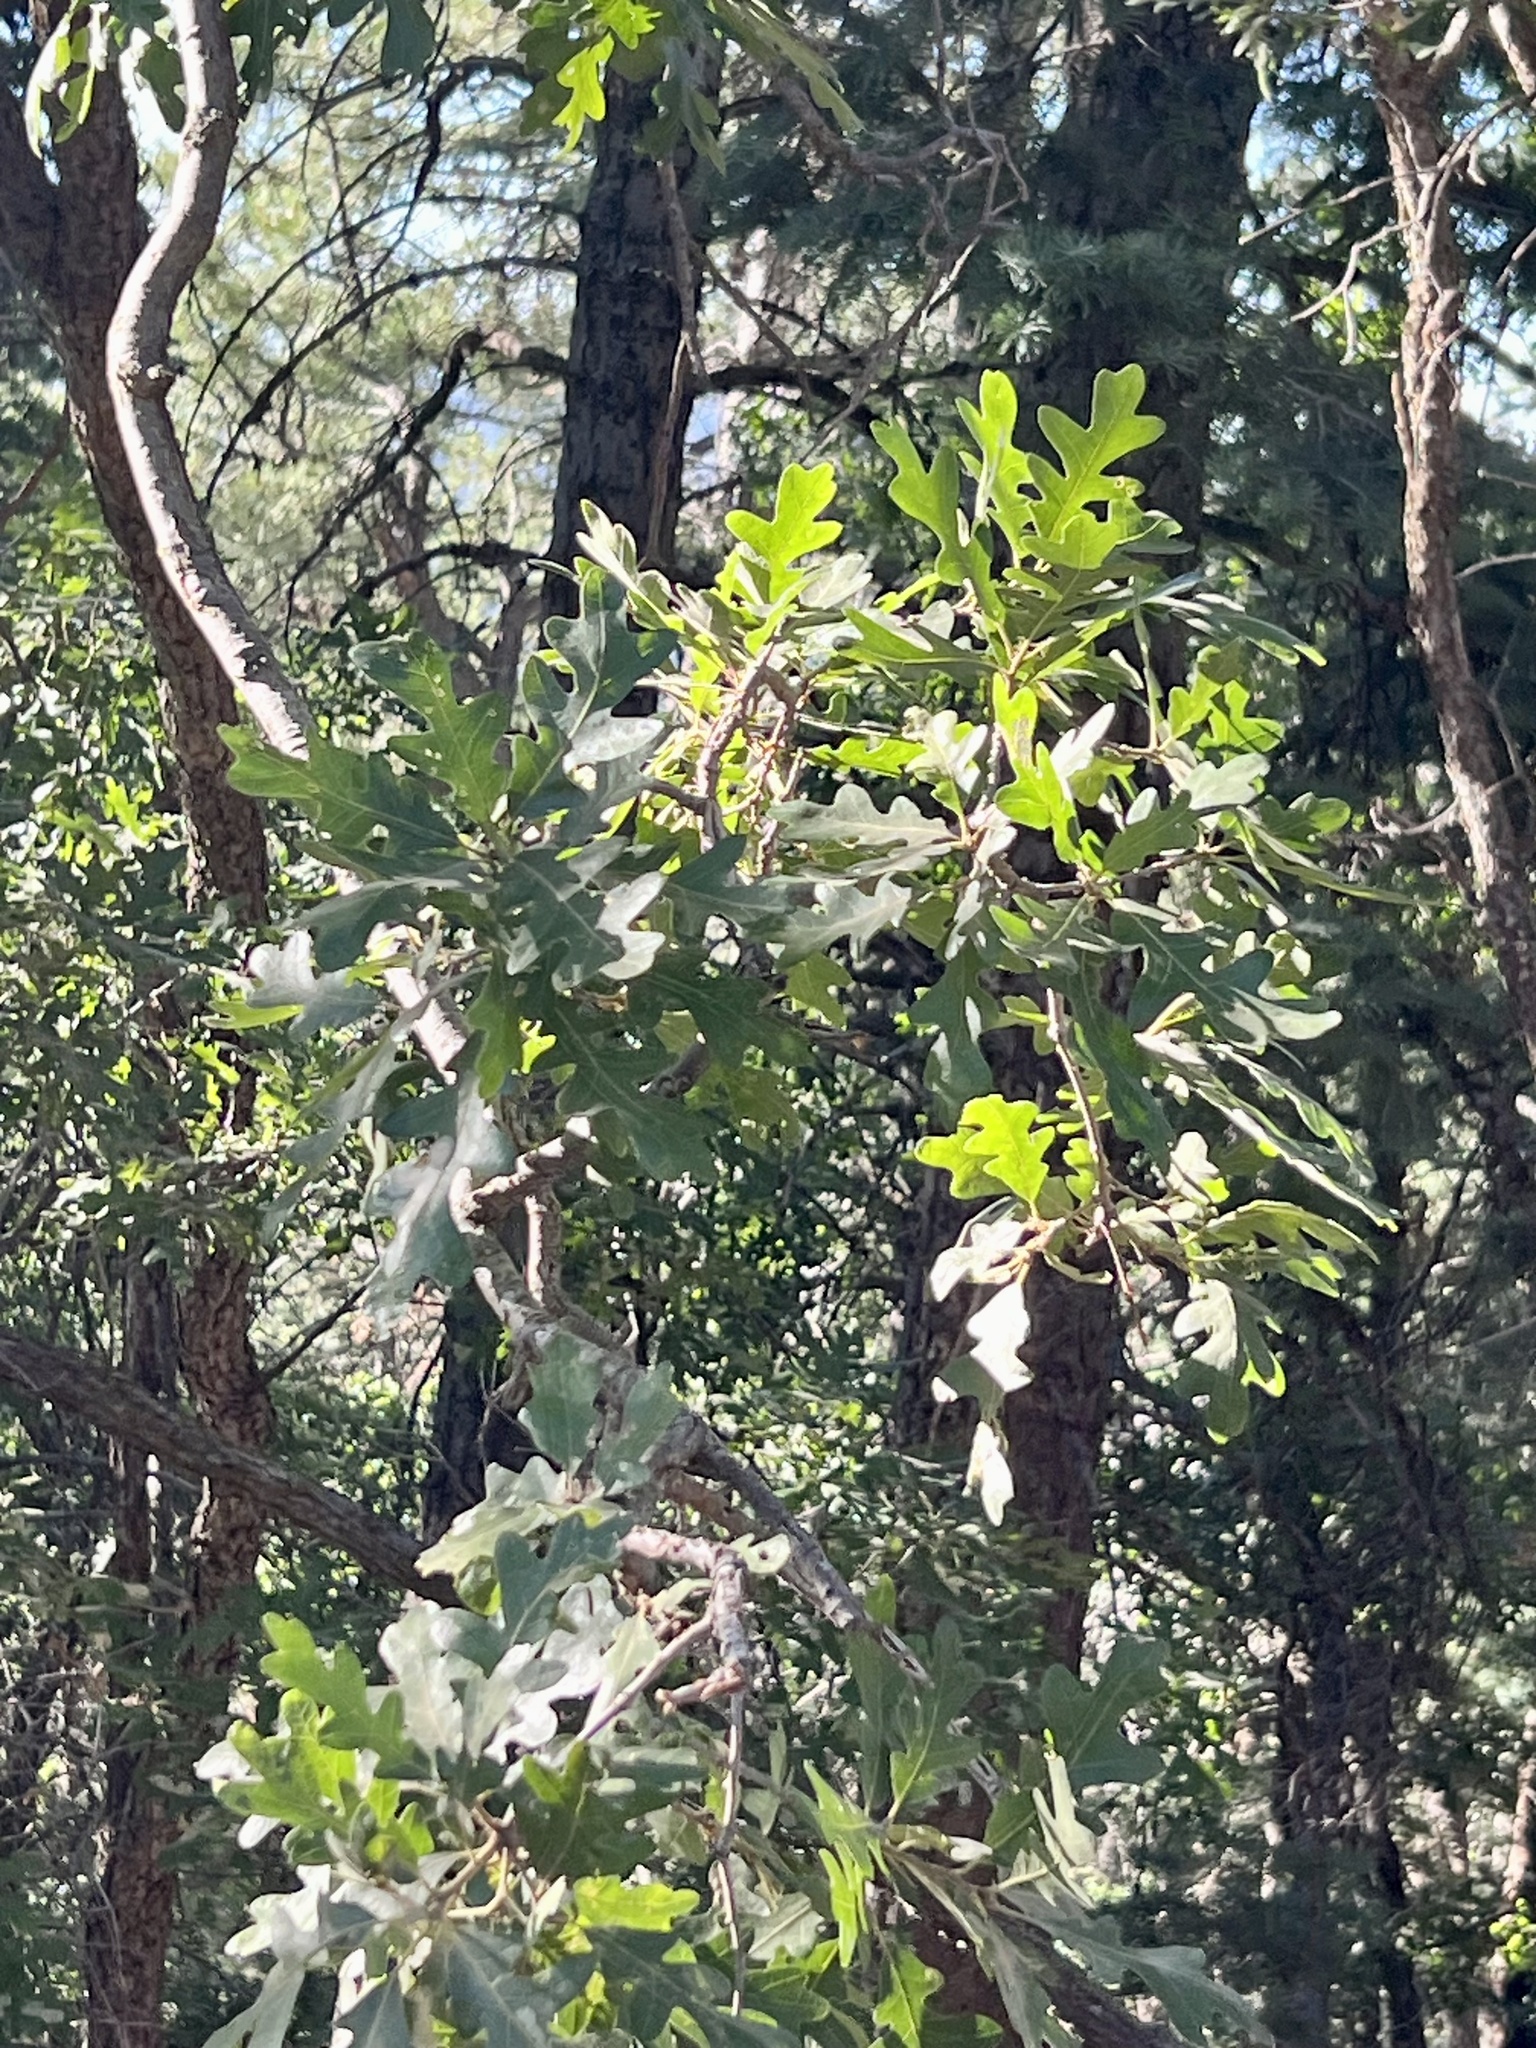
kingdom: Plantae
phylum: Tracheophyta
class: Magnoliopsida
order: Fagales
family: Fagaceae
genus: Quercus
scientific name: Quercus gambelii
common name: Gambel oak
